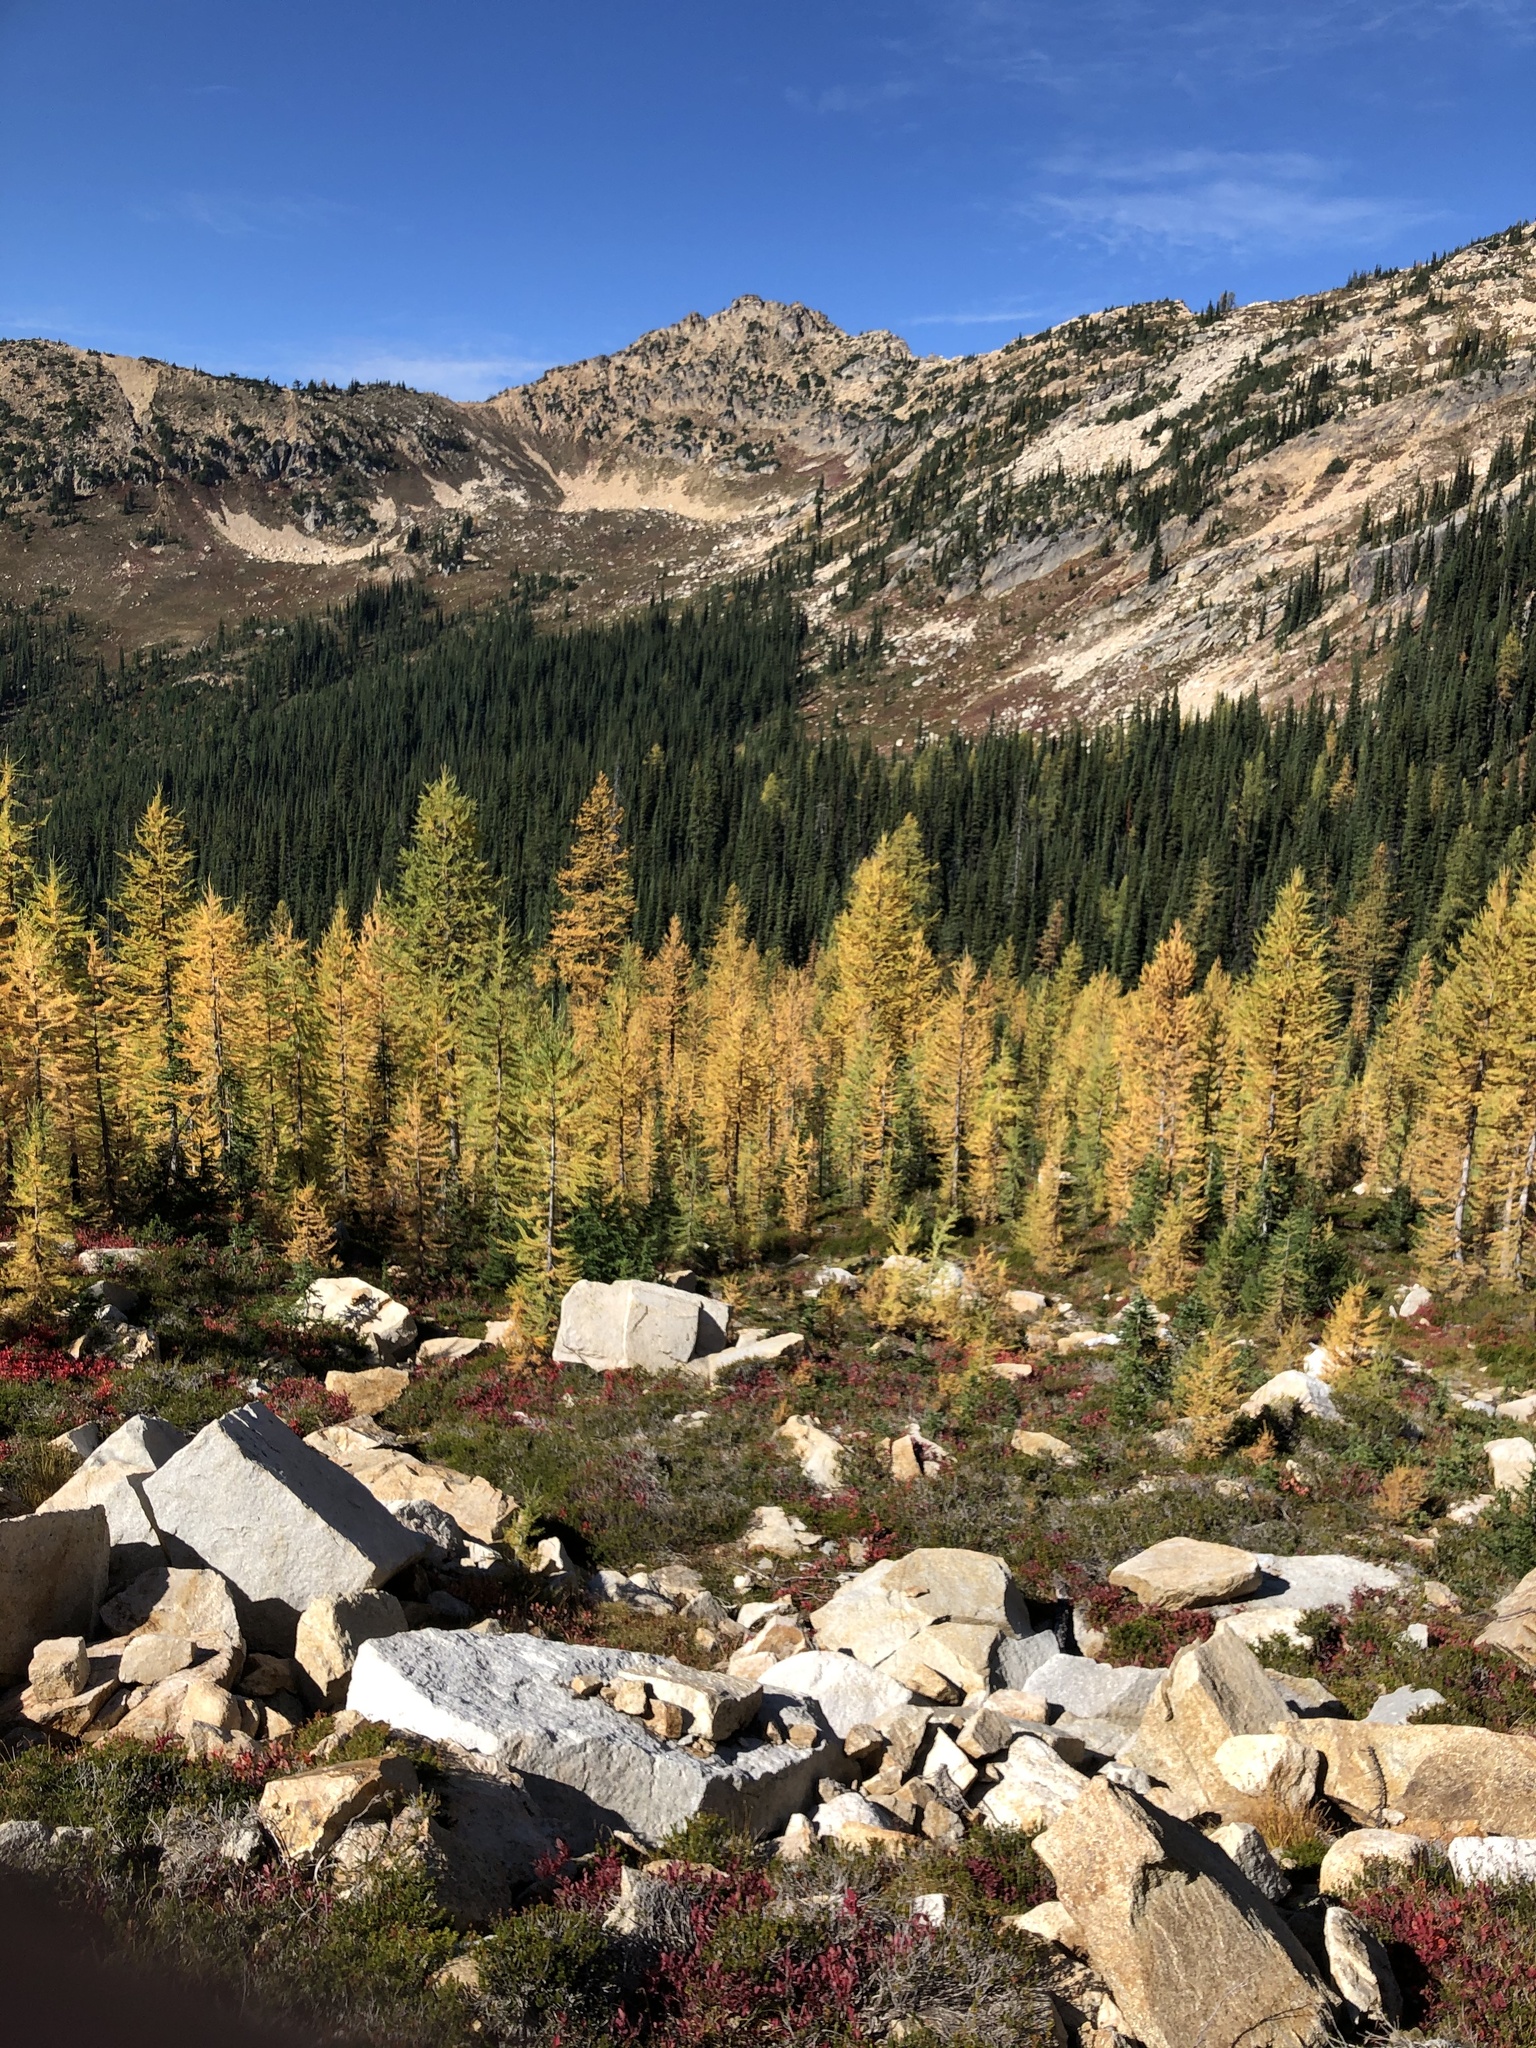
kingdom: Plantae
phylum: Tracheophyta
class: Pinopsida
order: Pinales
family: Pinaceae
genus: Larix
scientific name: Larix lyallii
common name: Alpine larch
